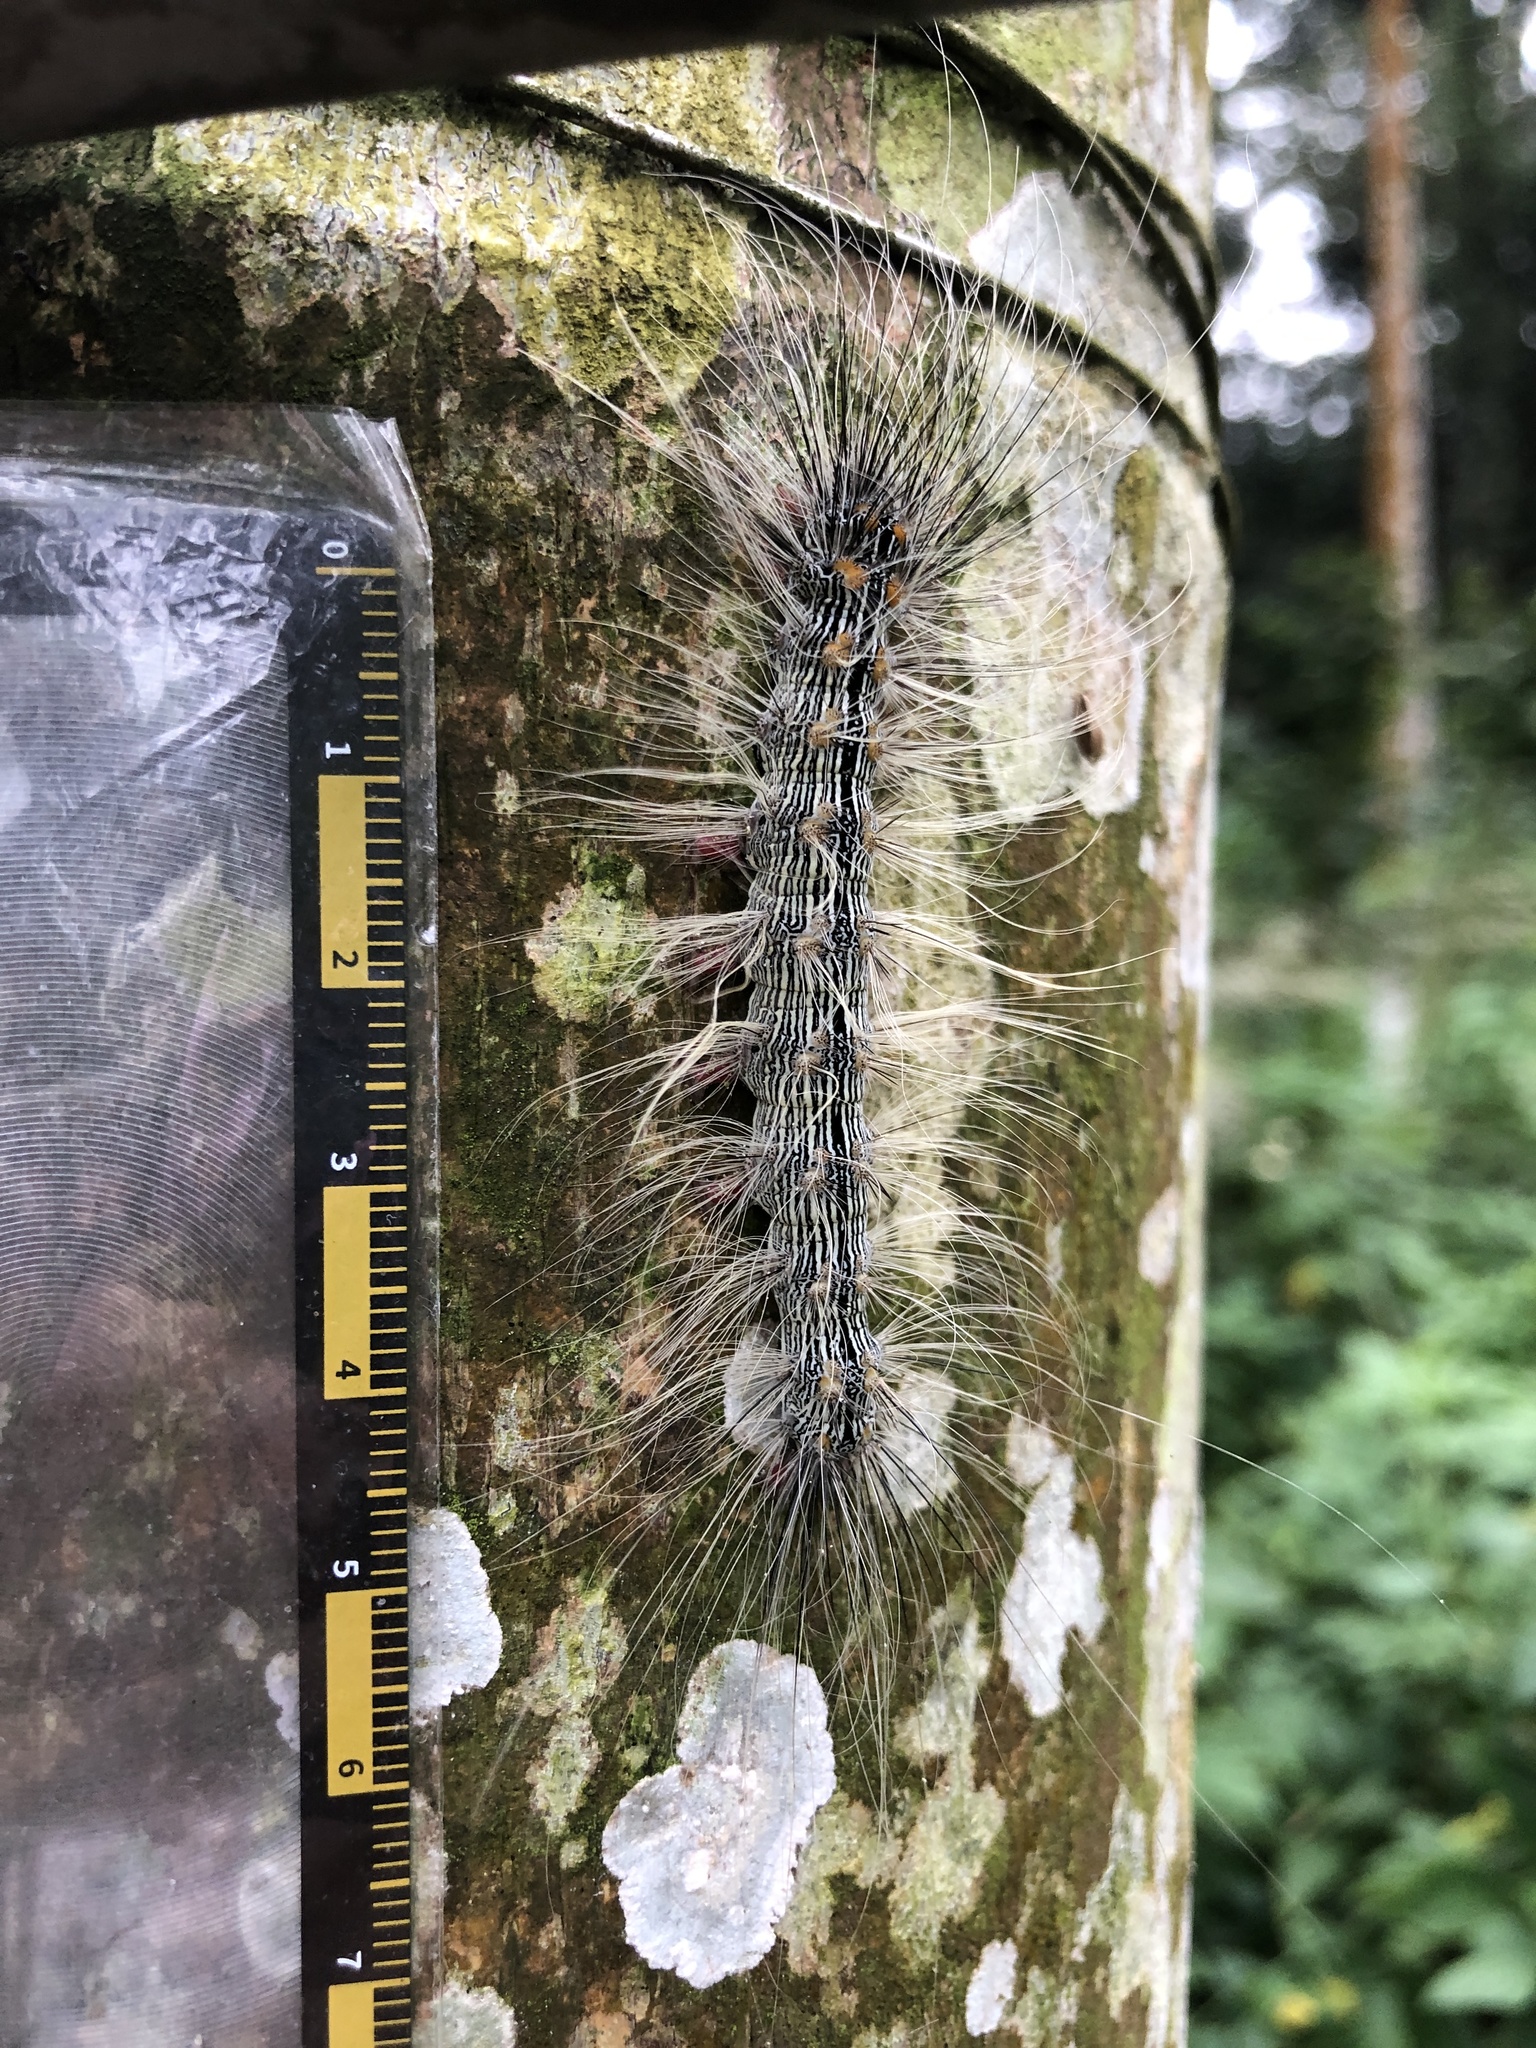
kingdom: Animalia
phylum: Arthropoda
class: Insecta
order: Lepidoptera
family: Erebidae
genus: Chrysaeglia
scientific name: Chrysaeglia magnifica
